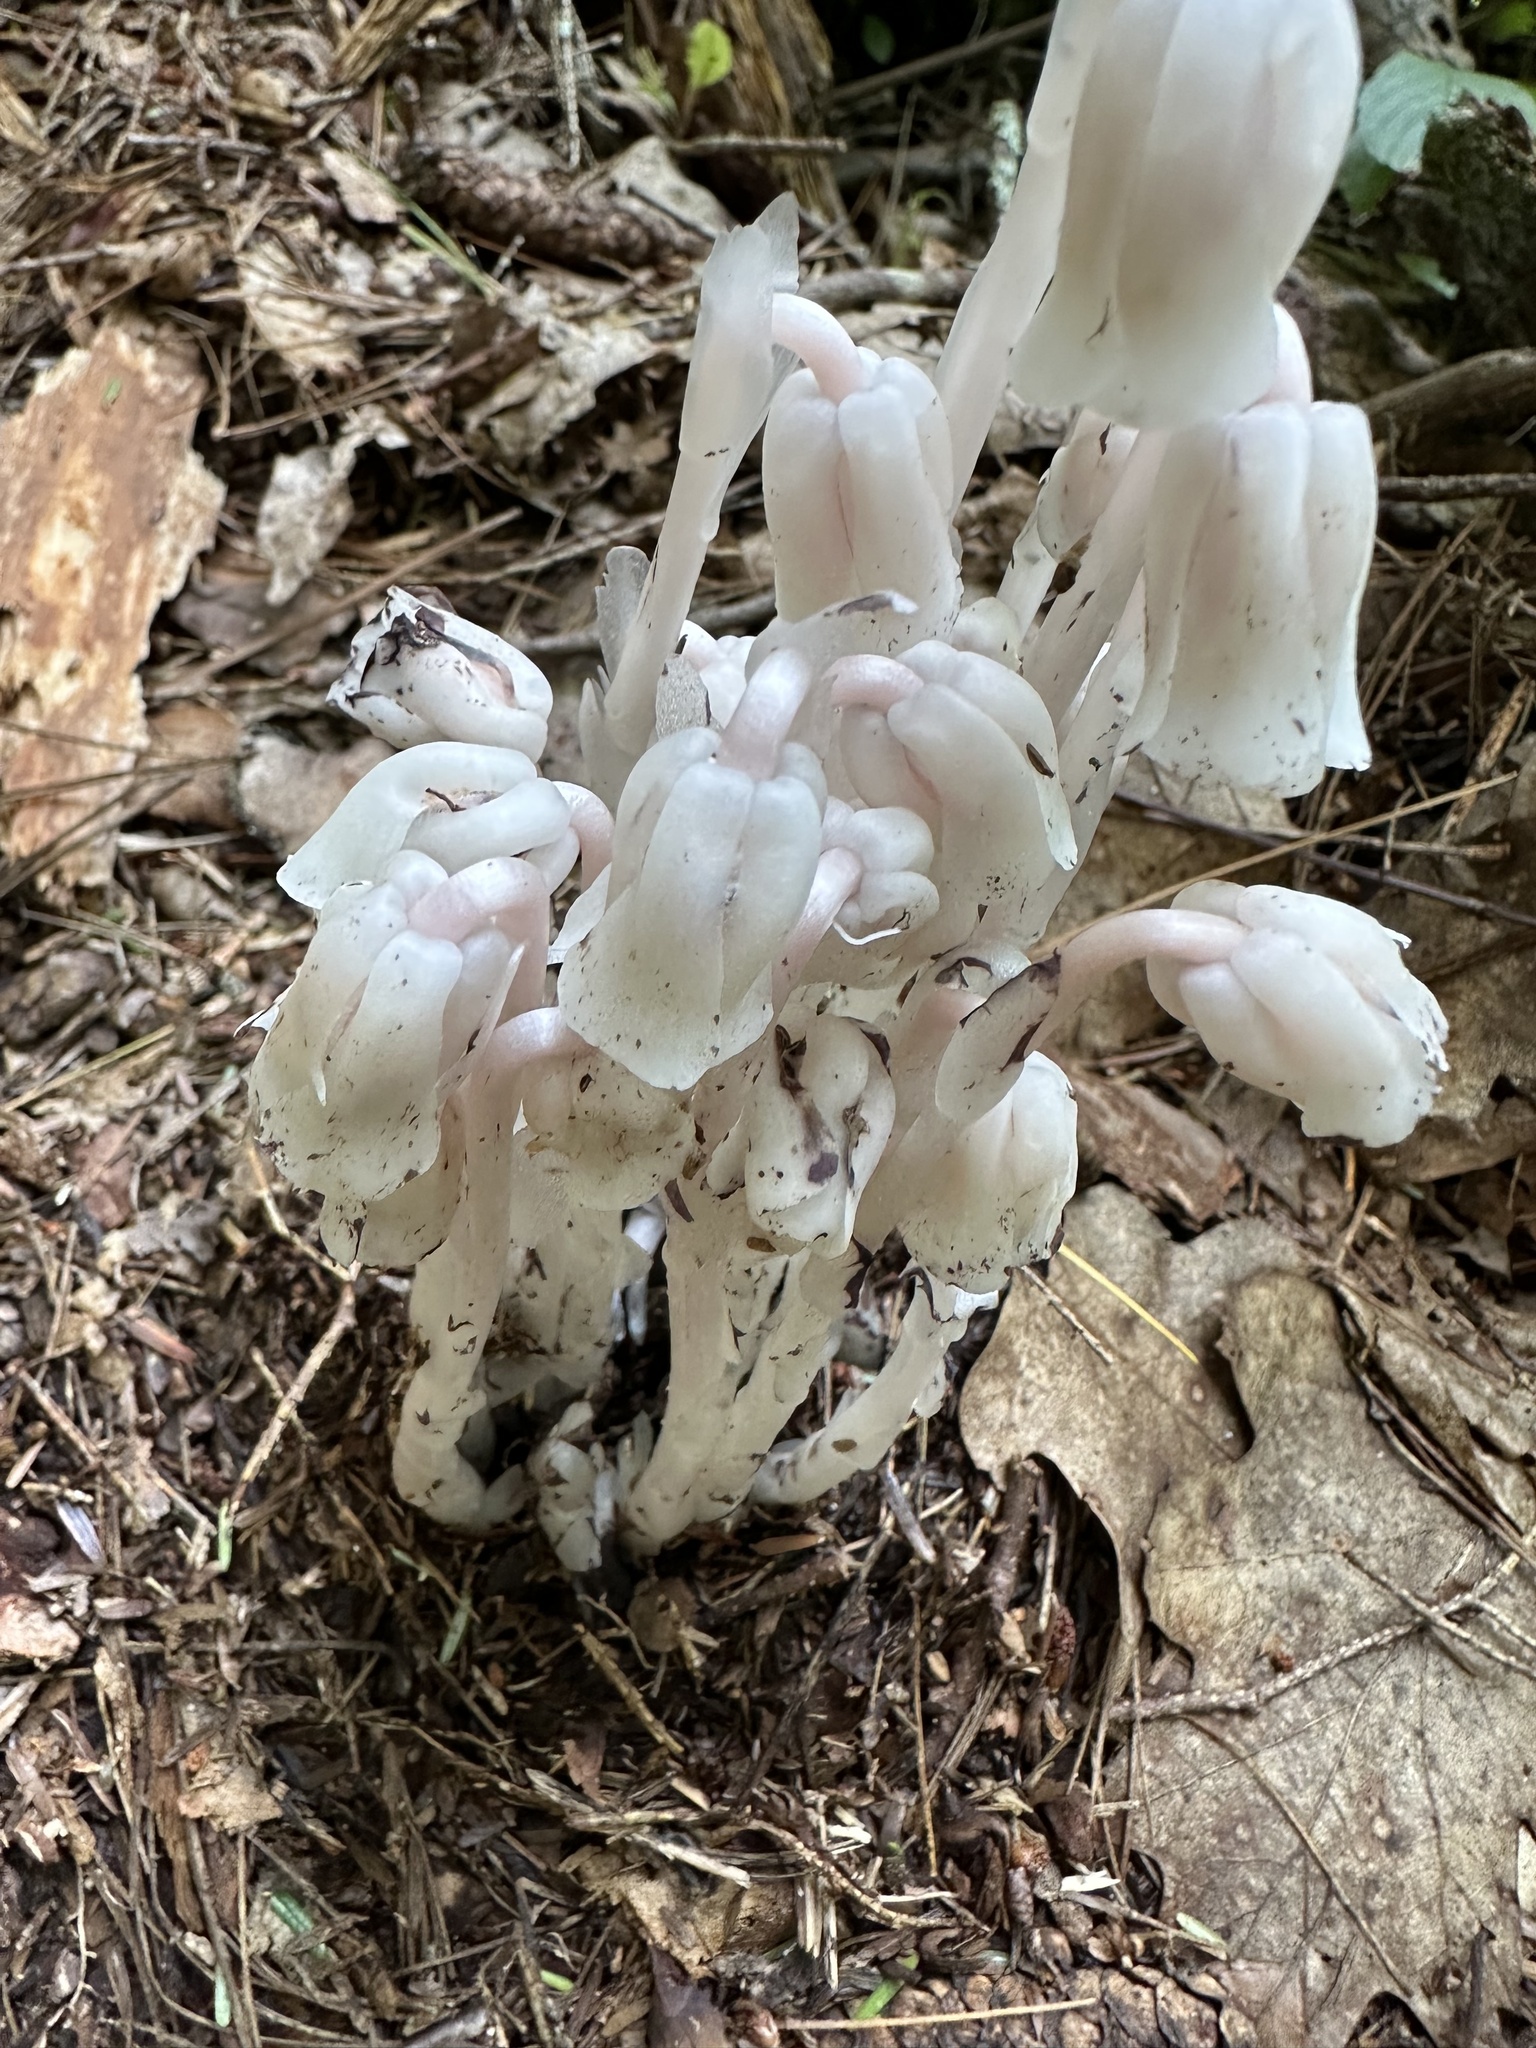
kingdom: Plantae
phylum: Tracheophyta
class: Magnoliopsida
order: Ericales
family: Ericaceae
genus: Monotropa
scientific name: Monotropa uniflora
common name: Convulsion root
